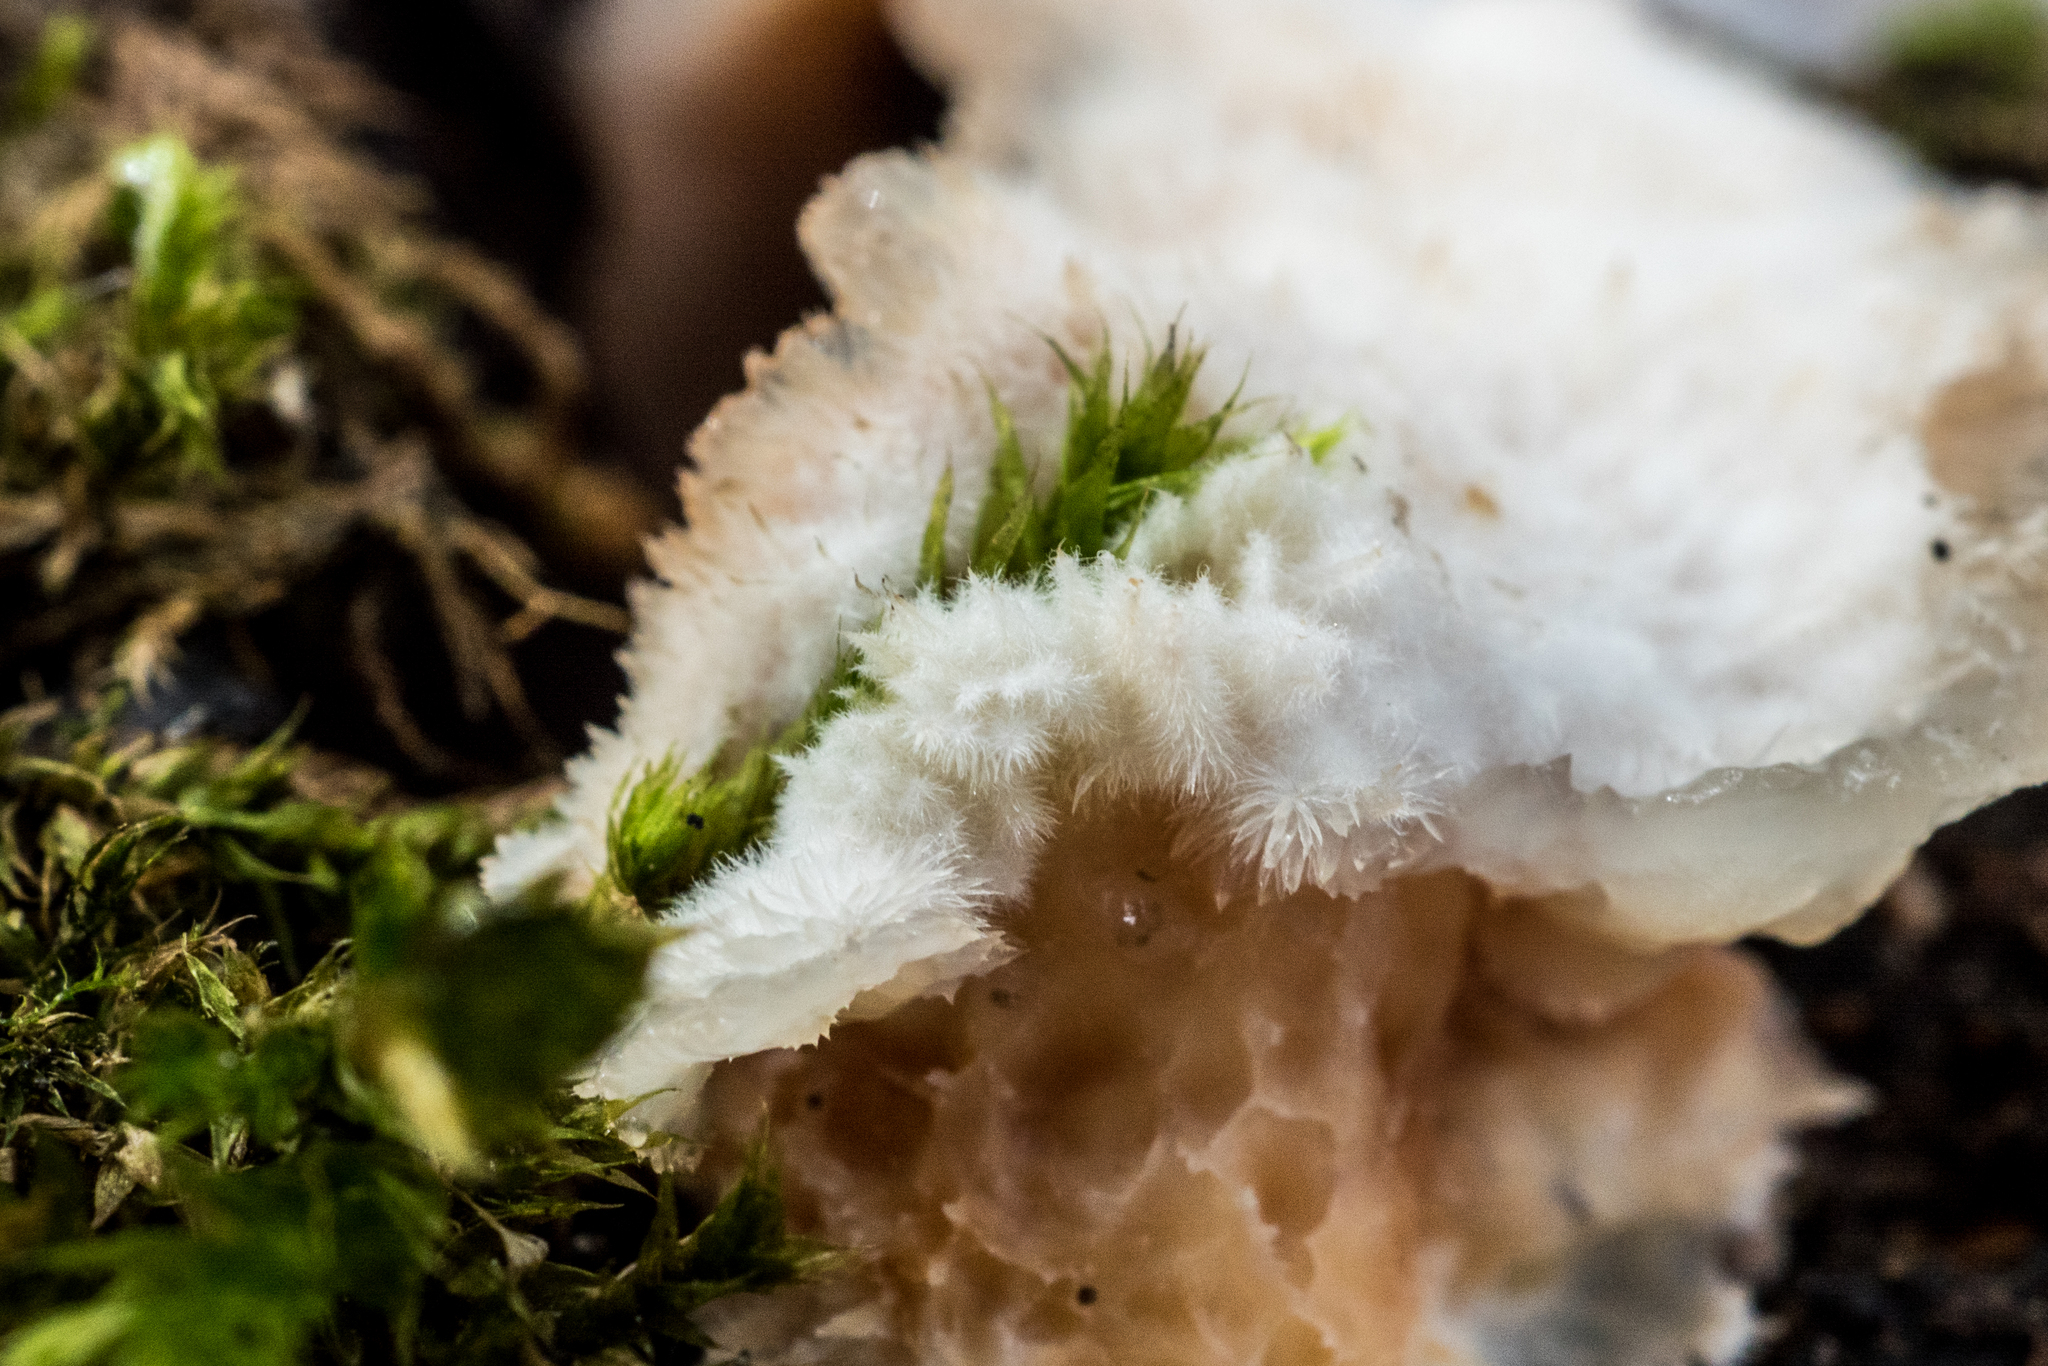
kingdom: Fungi
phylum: Basidiomycota
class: Agaricomycetes
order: Polyporales
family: Meruliaceae
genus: Phlebia
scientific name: Phlebia tremellosa
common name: Jelly rot
